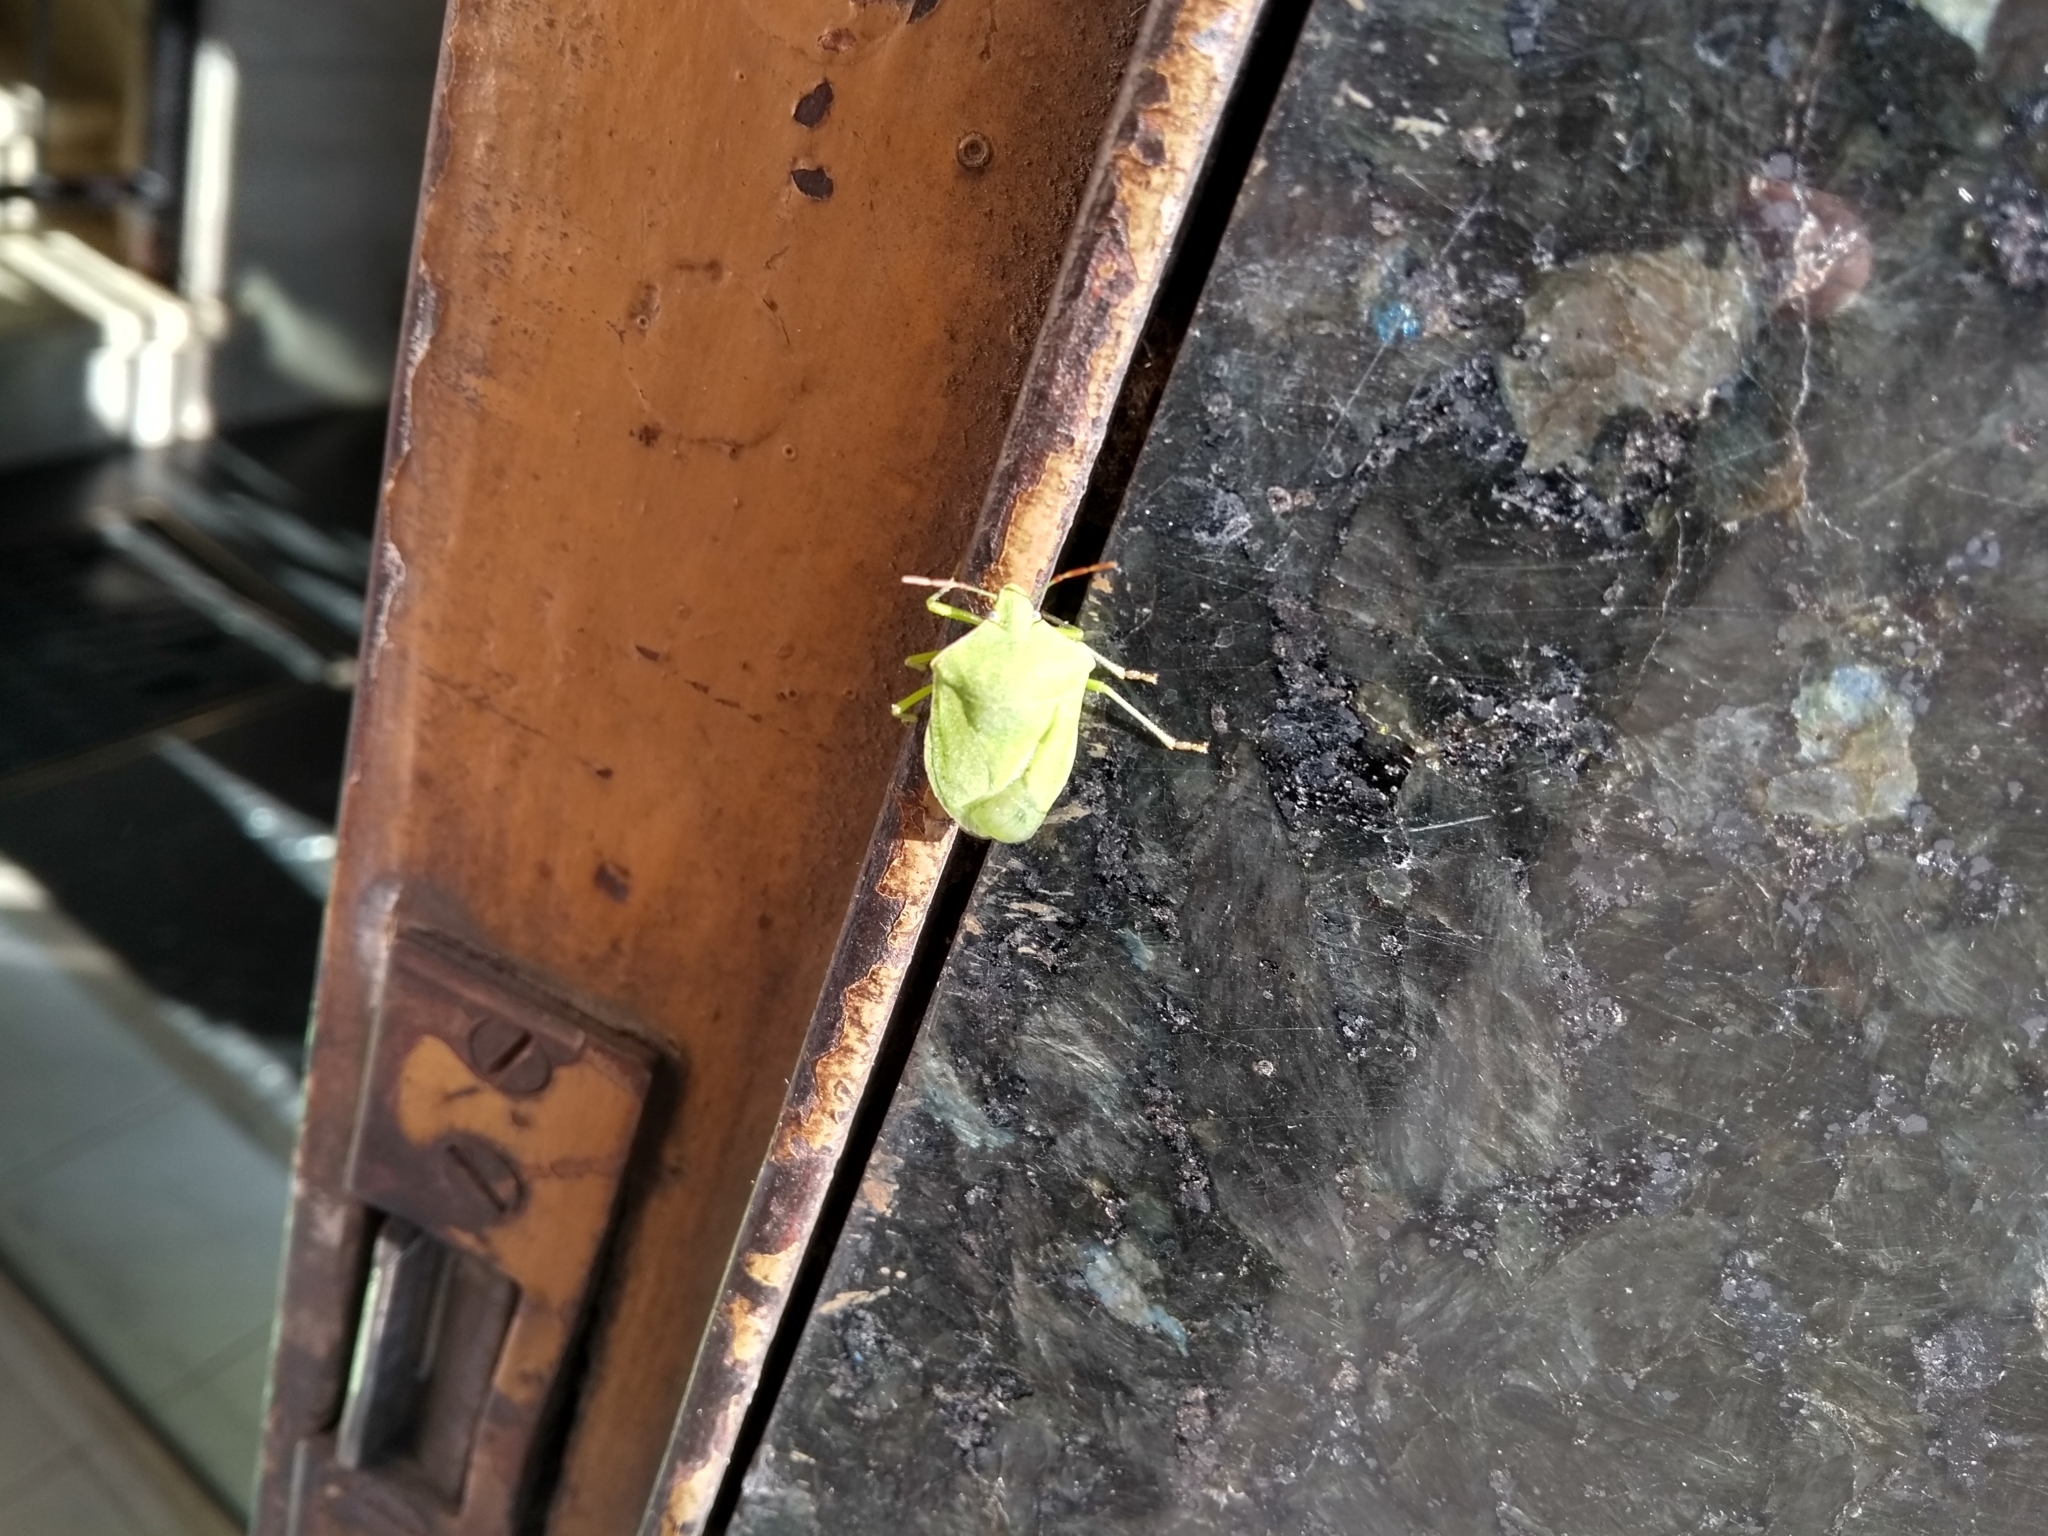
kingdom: Animalia
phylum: Arthropoda
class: Insecta
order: Hemiptera
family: Pentatomidae
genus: Nezara
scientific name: Nezara viridula
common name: Southern green stink bug
